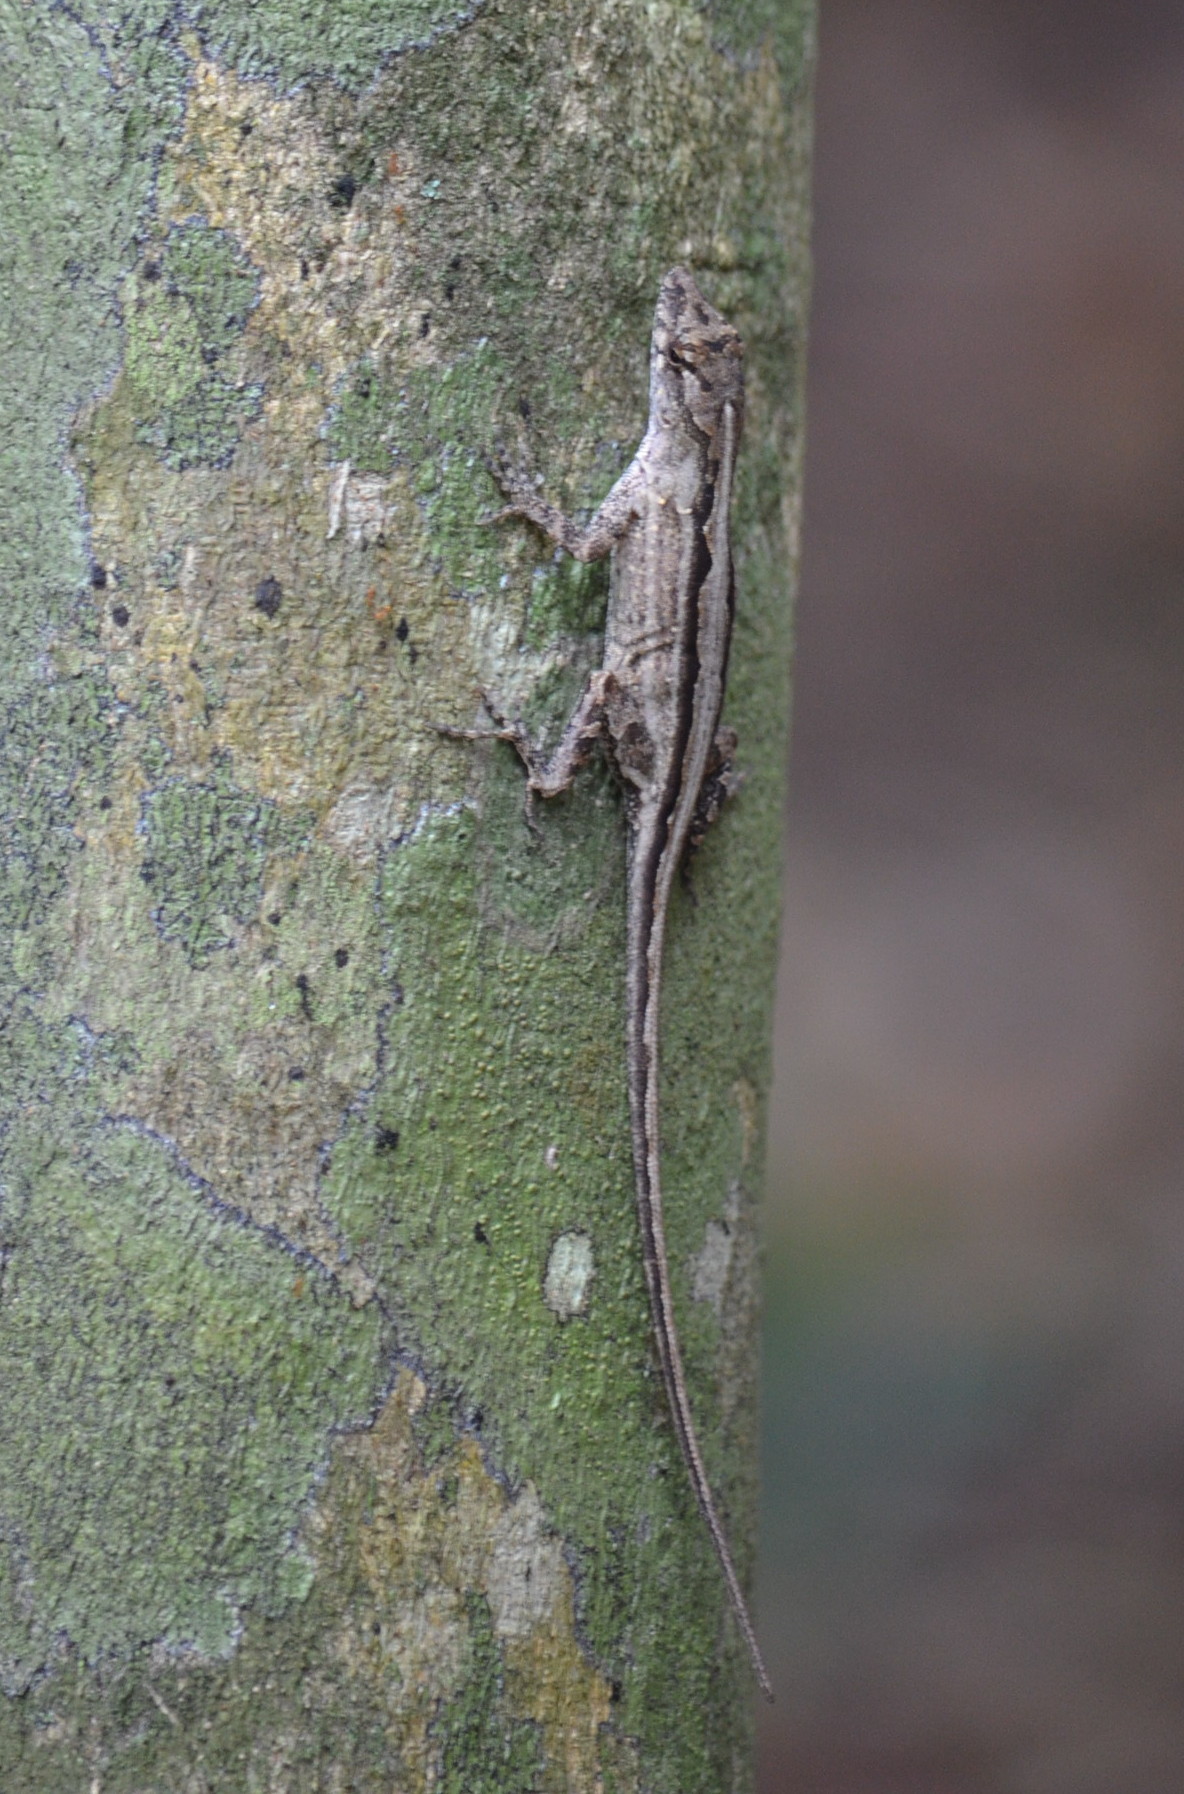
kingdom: Animalia
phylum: Chordata
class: Squamata
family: Dactyloidae
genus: Anolis
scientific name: Anolis sagrei
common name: Brown anole
